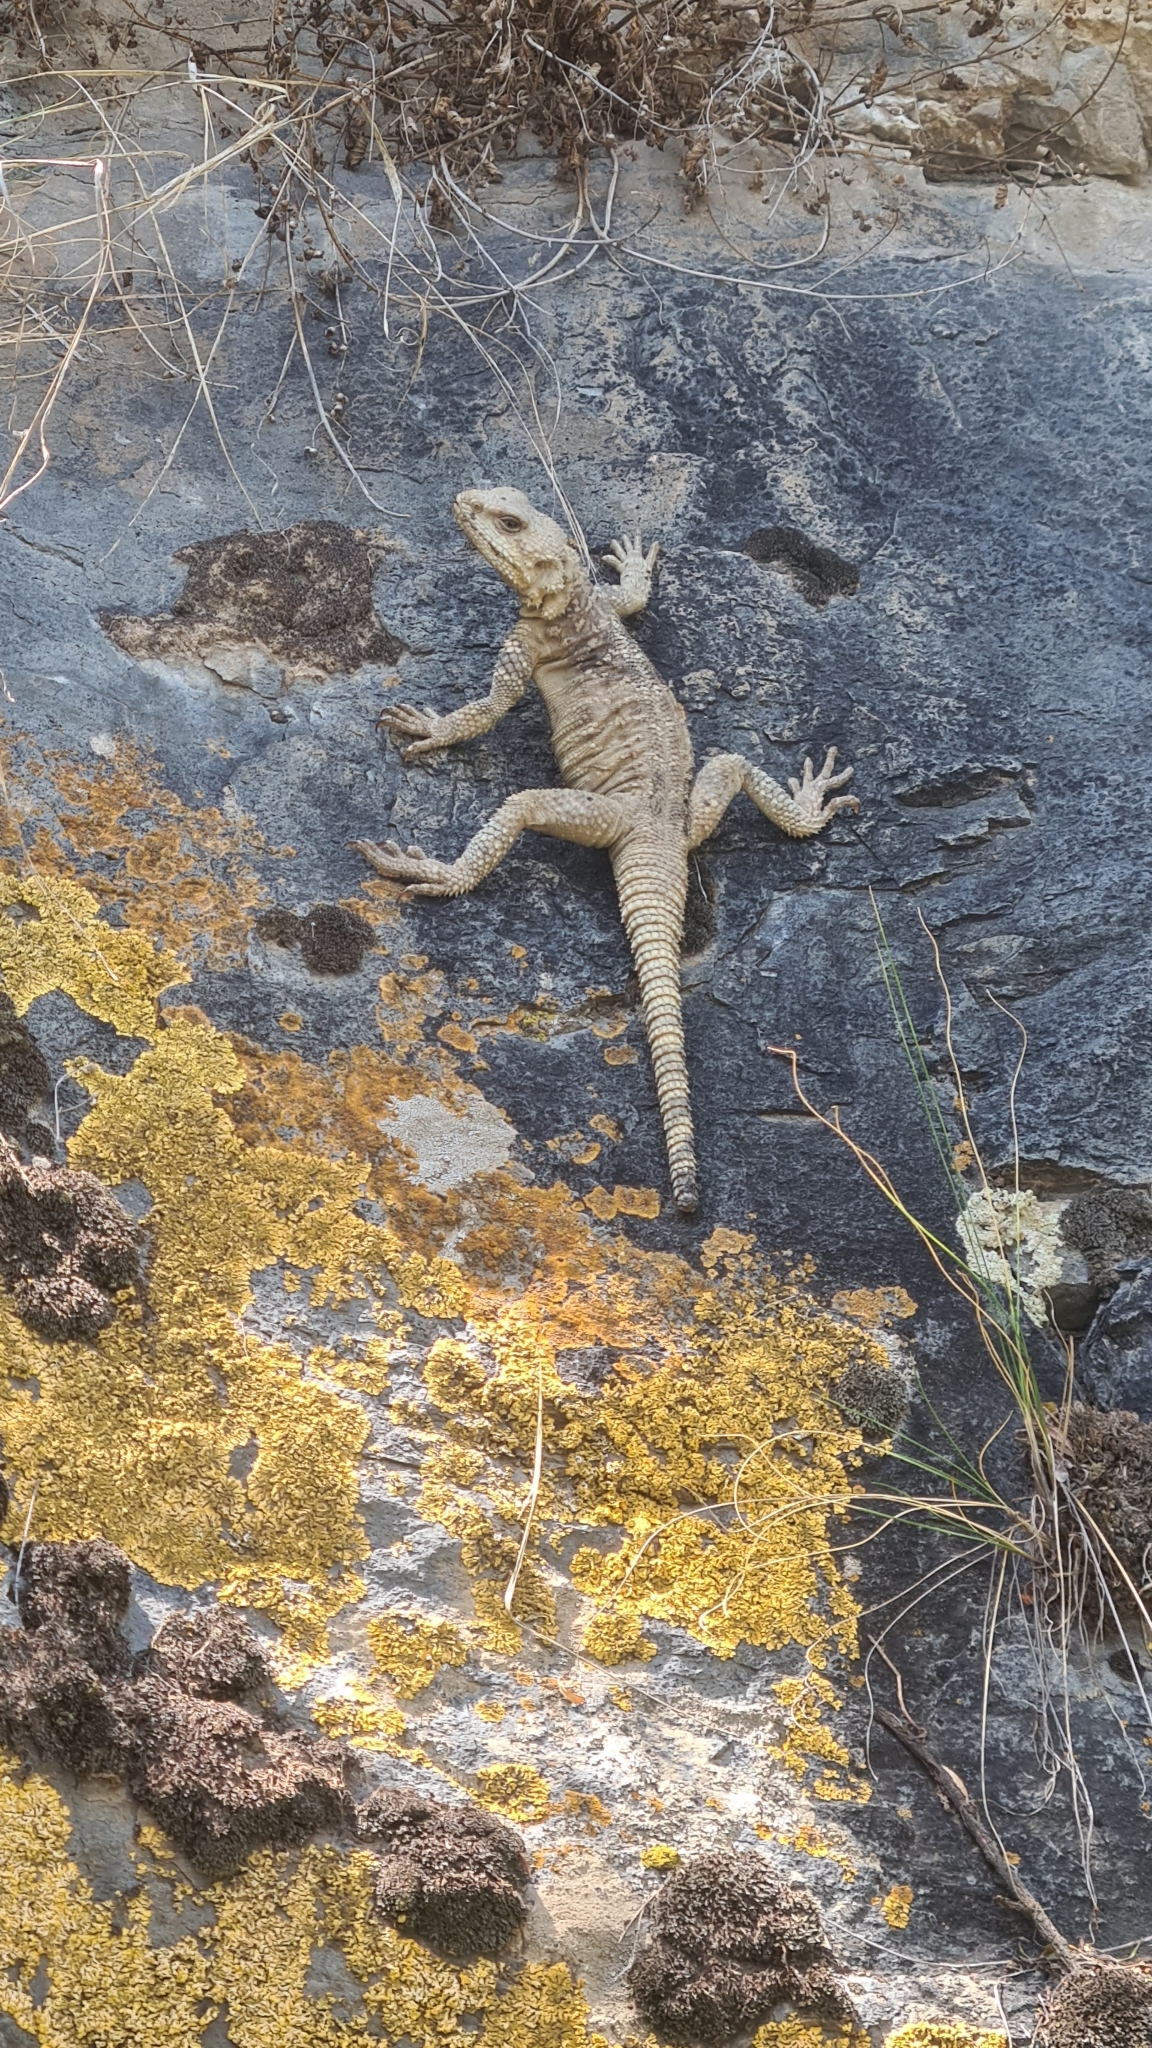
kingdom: Animalia
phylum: Chordata
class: Squamata
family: Agamidae
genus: Paralaudakia
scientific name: Paralaudakia caucasia
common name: Caucasian agama
